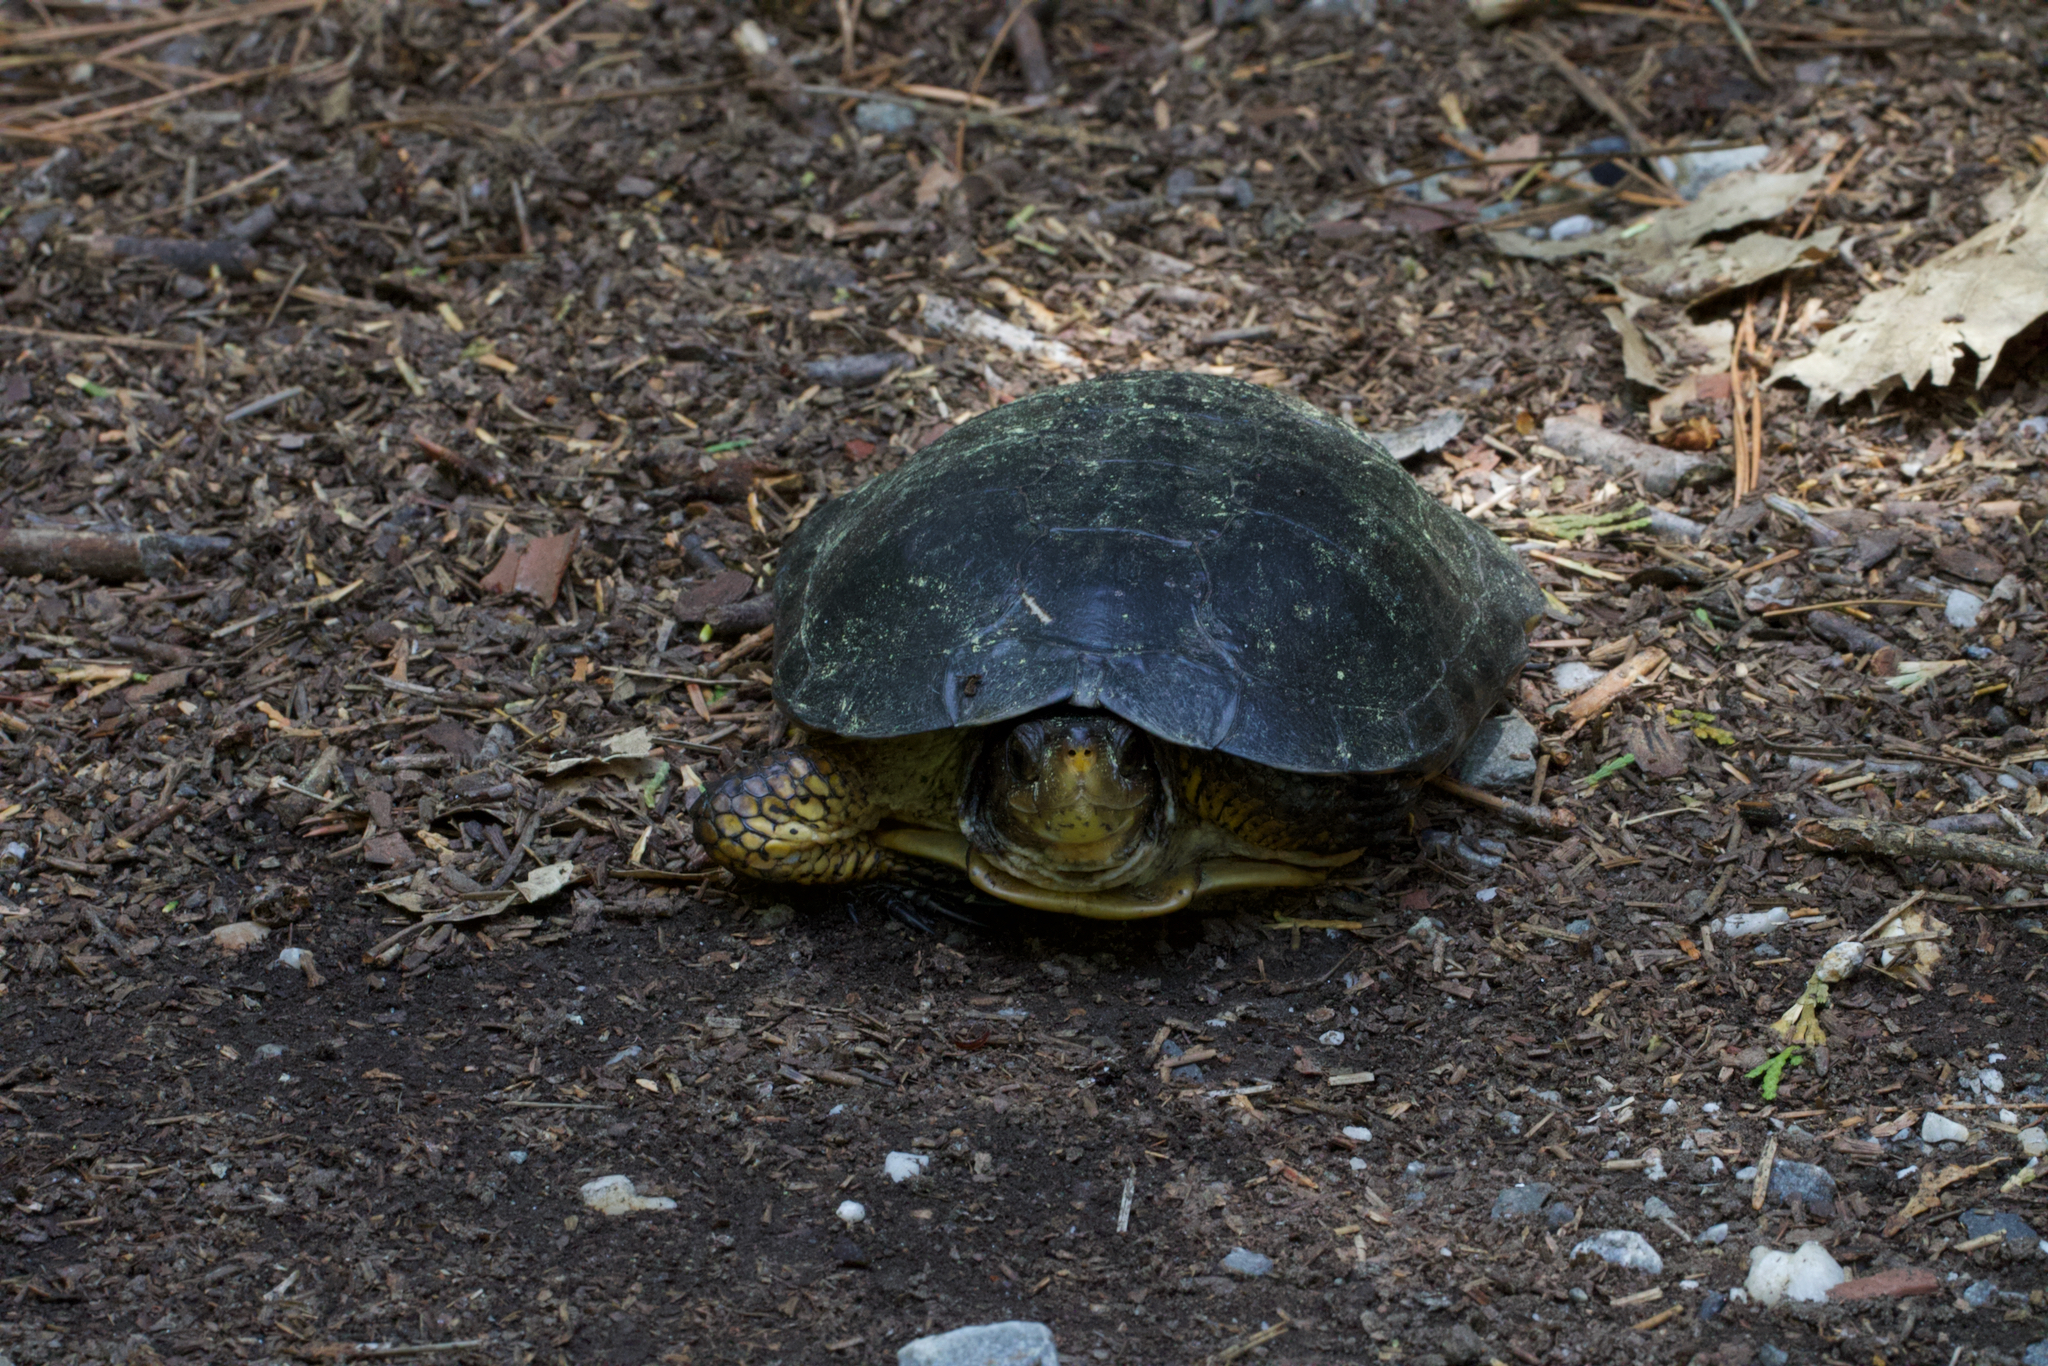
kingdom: Animalia
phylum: Chordata
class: Testudines
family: Emydidae
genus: Actinemys
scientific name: Actinemys marmorata
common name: Western pond turtle
